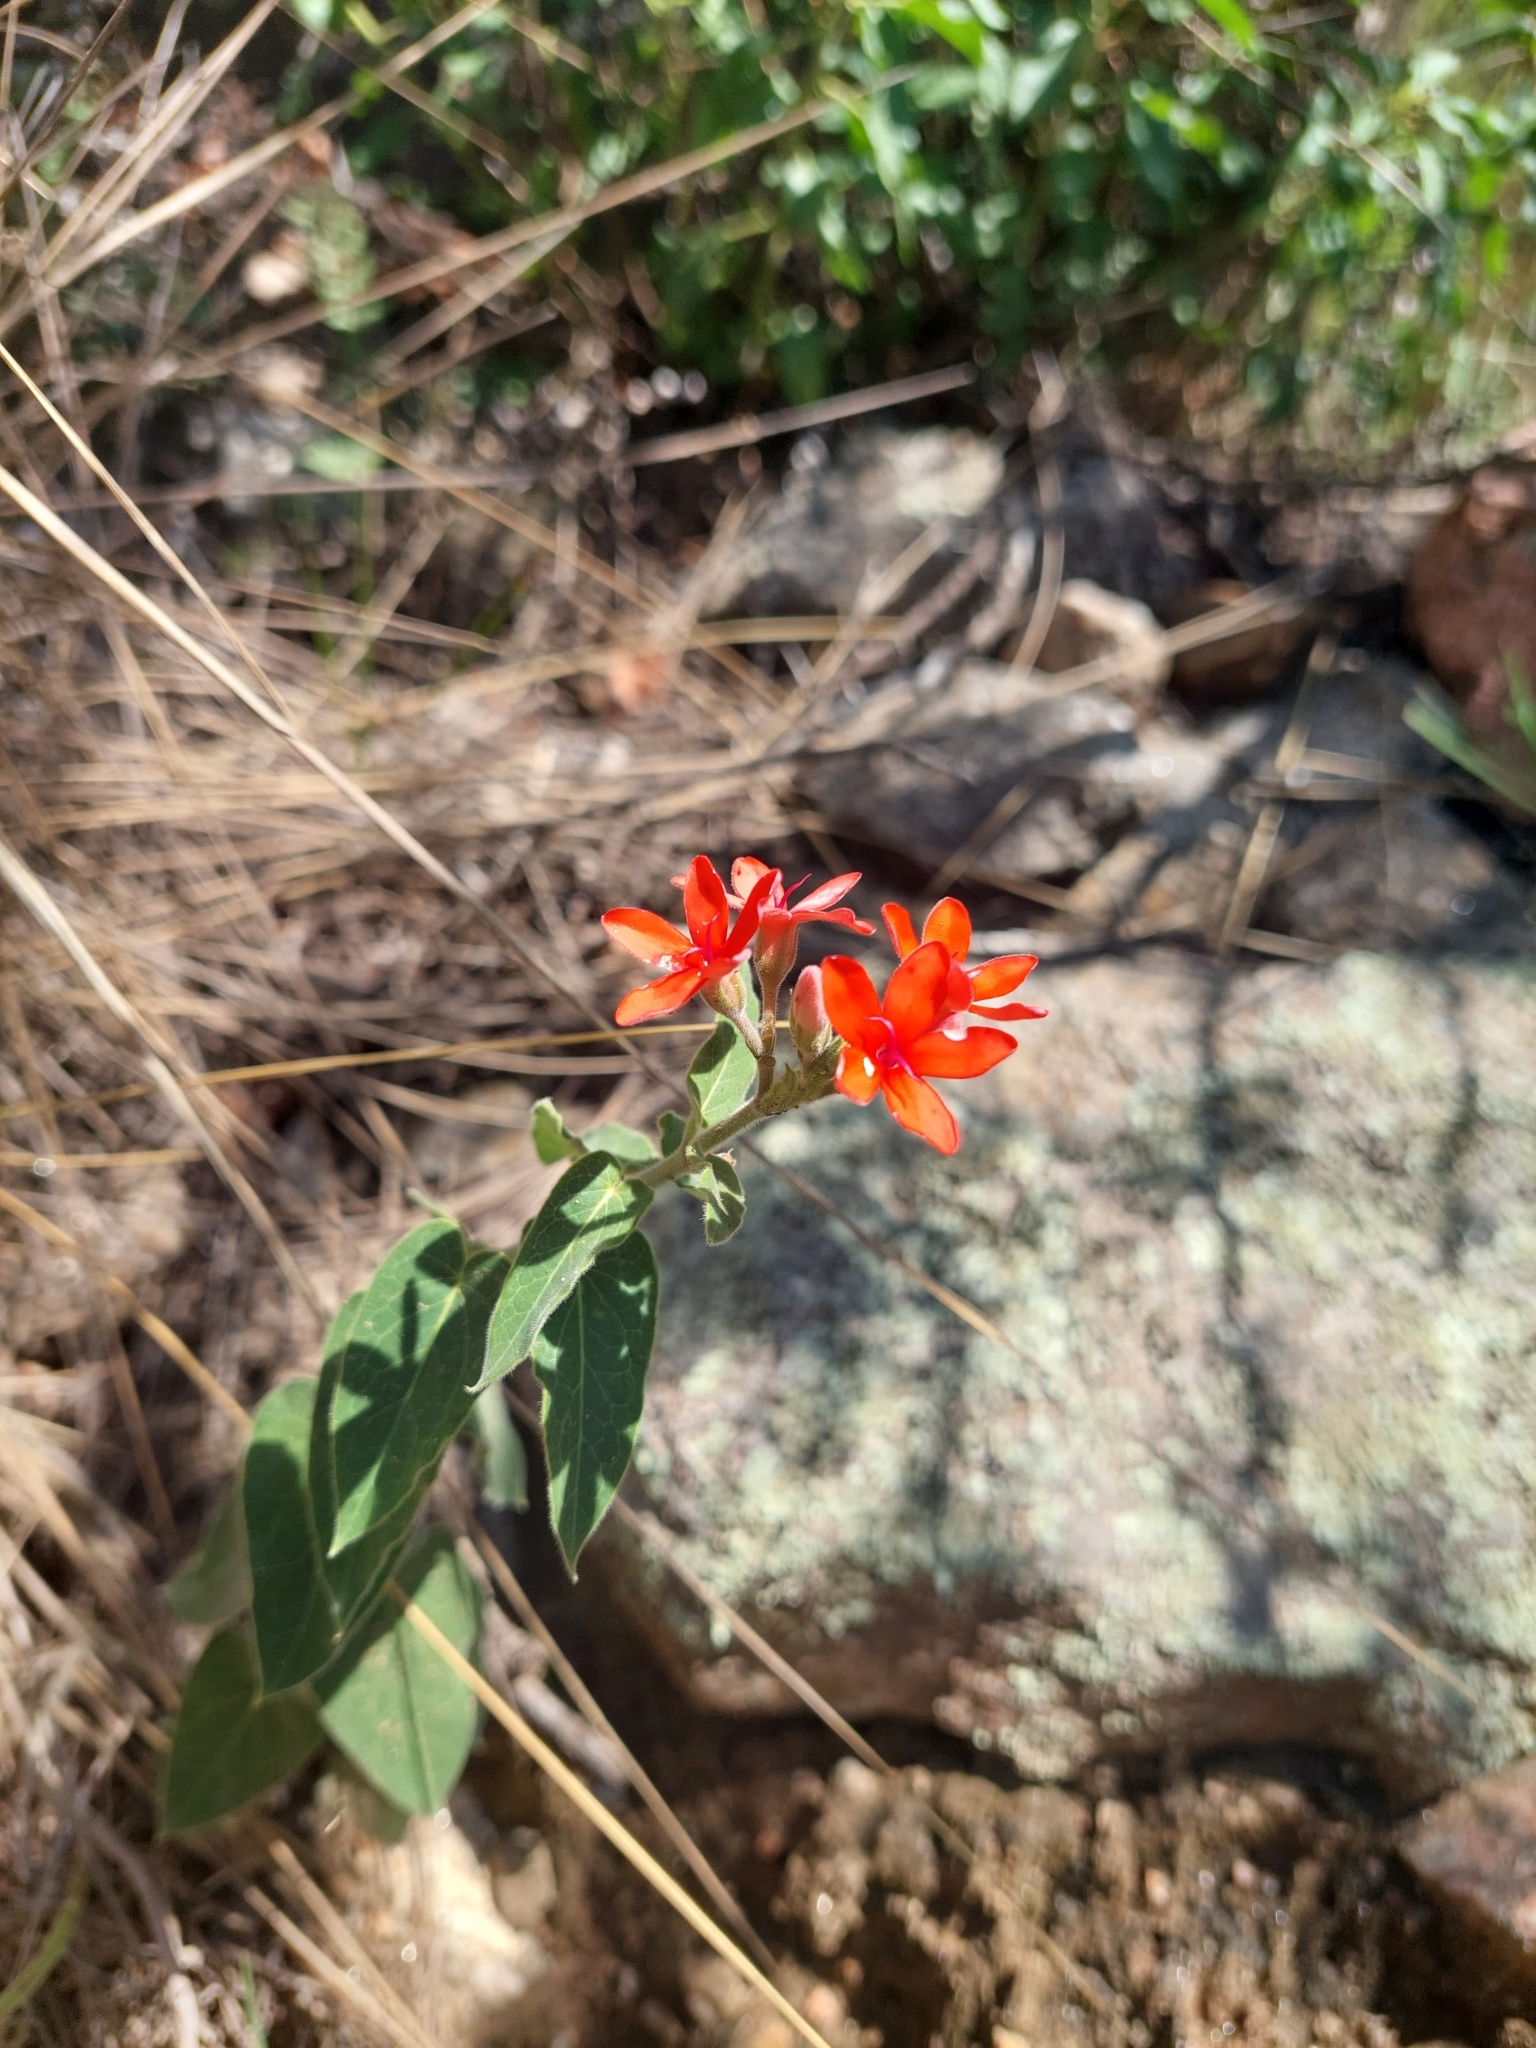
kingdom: Plantae
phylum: Tracheophyta
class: Magnoliopsida
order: Gentianales
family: Apocynaceae
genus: Oxypetalum
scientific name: Oxypetalum coccineum
